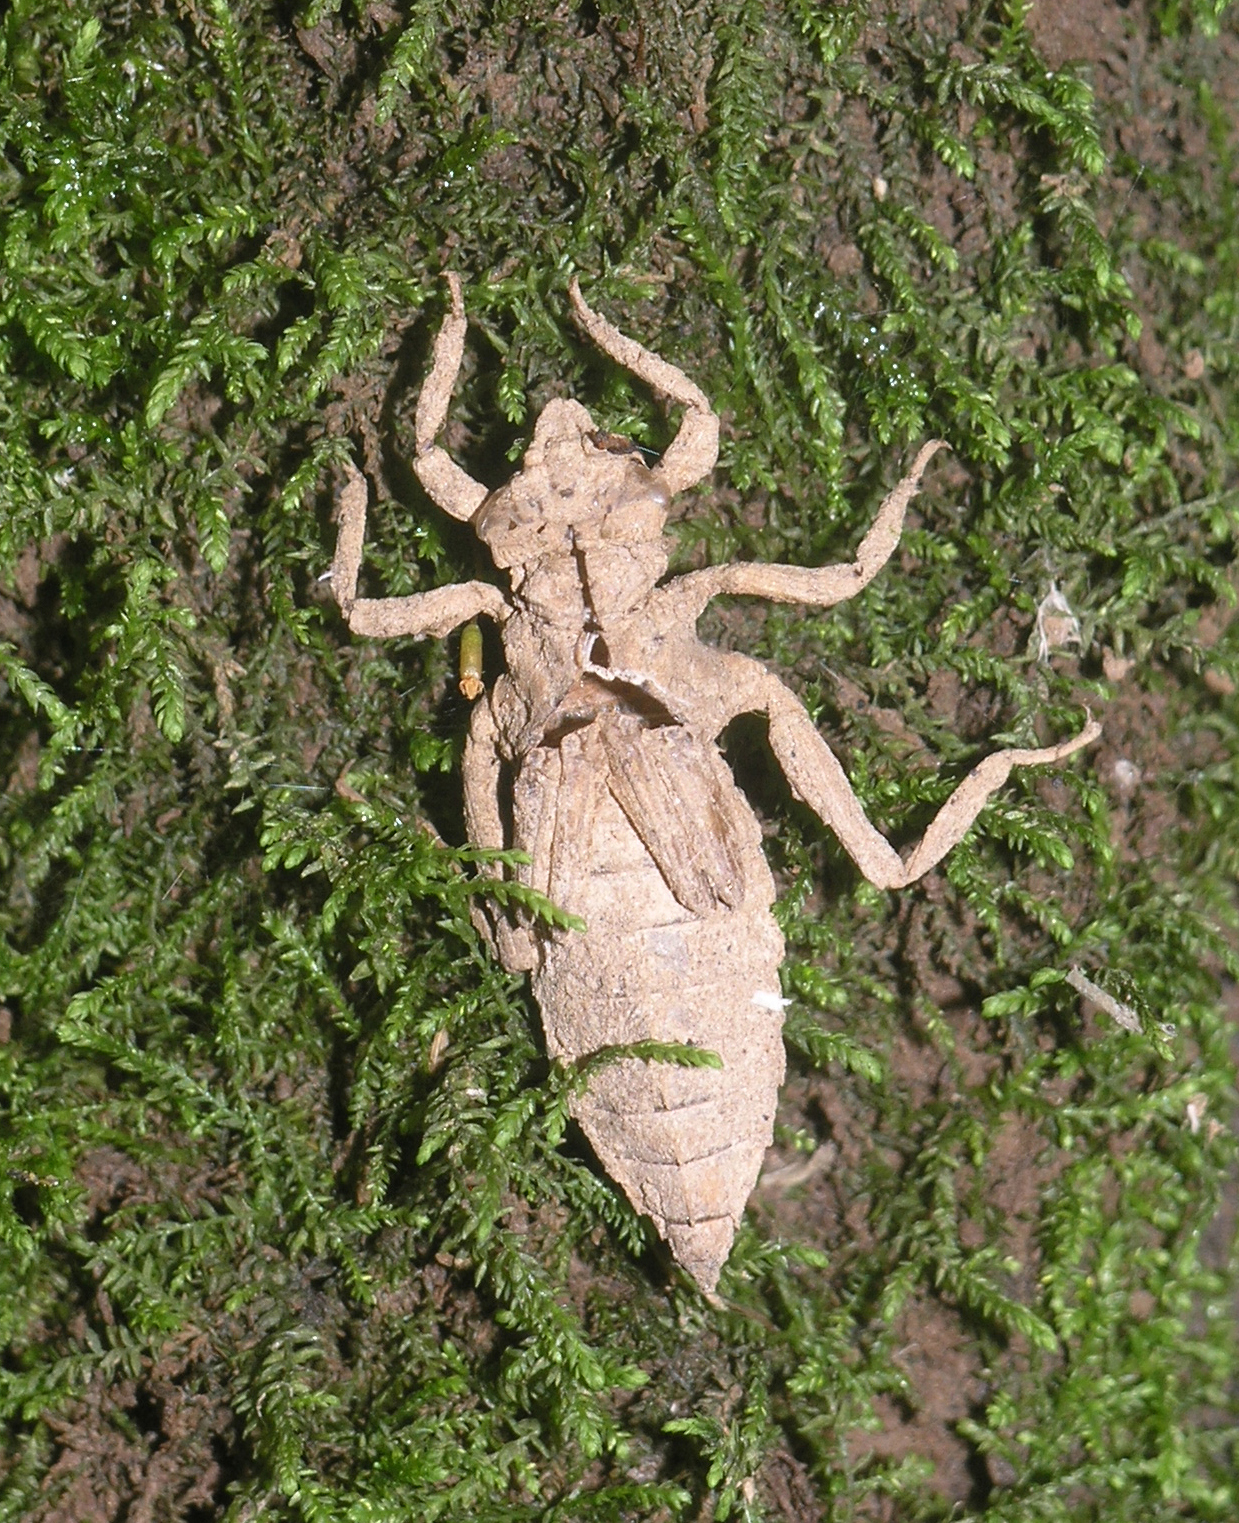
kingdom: Animalia
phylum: Arthropoda
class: Insecta
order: Odonata
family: Gomphidae
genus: Trigomphus
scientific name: Trigomphus nigripes
